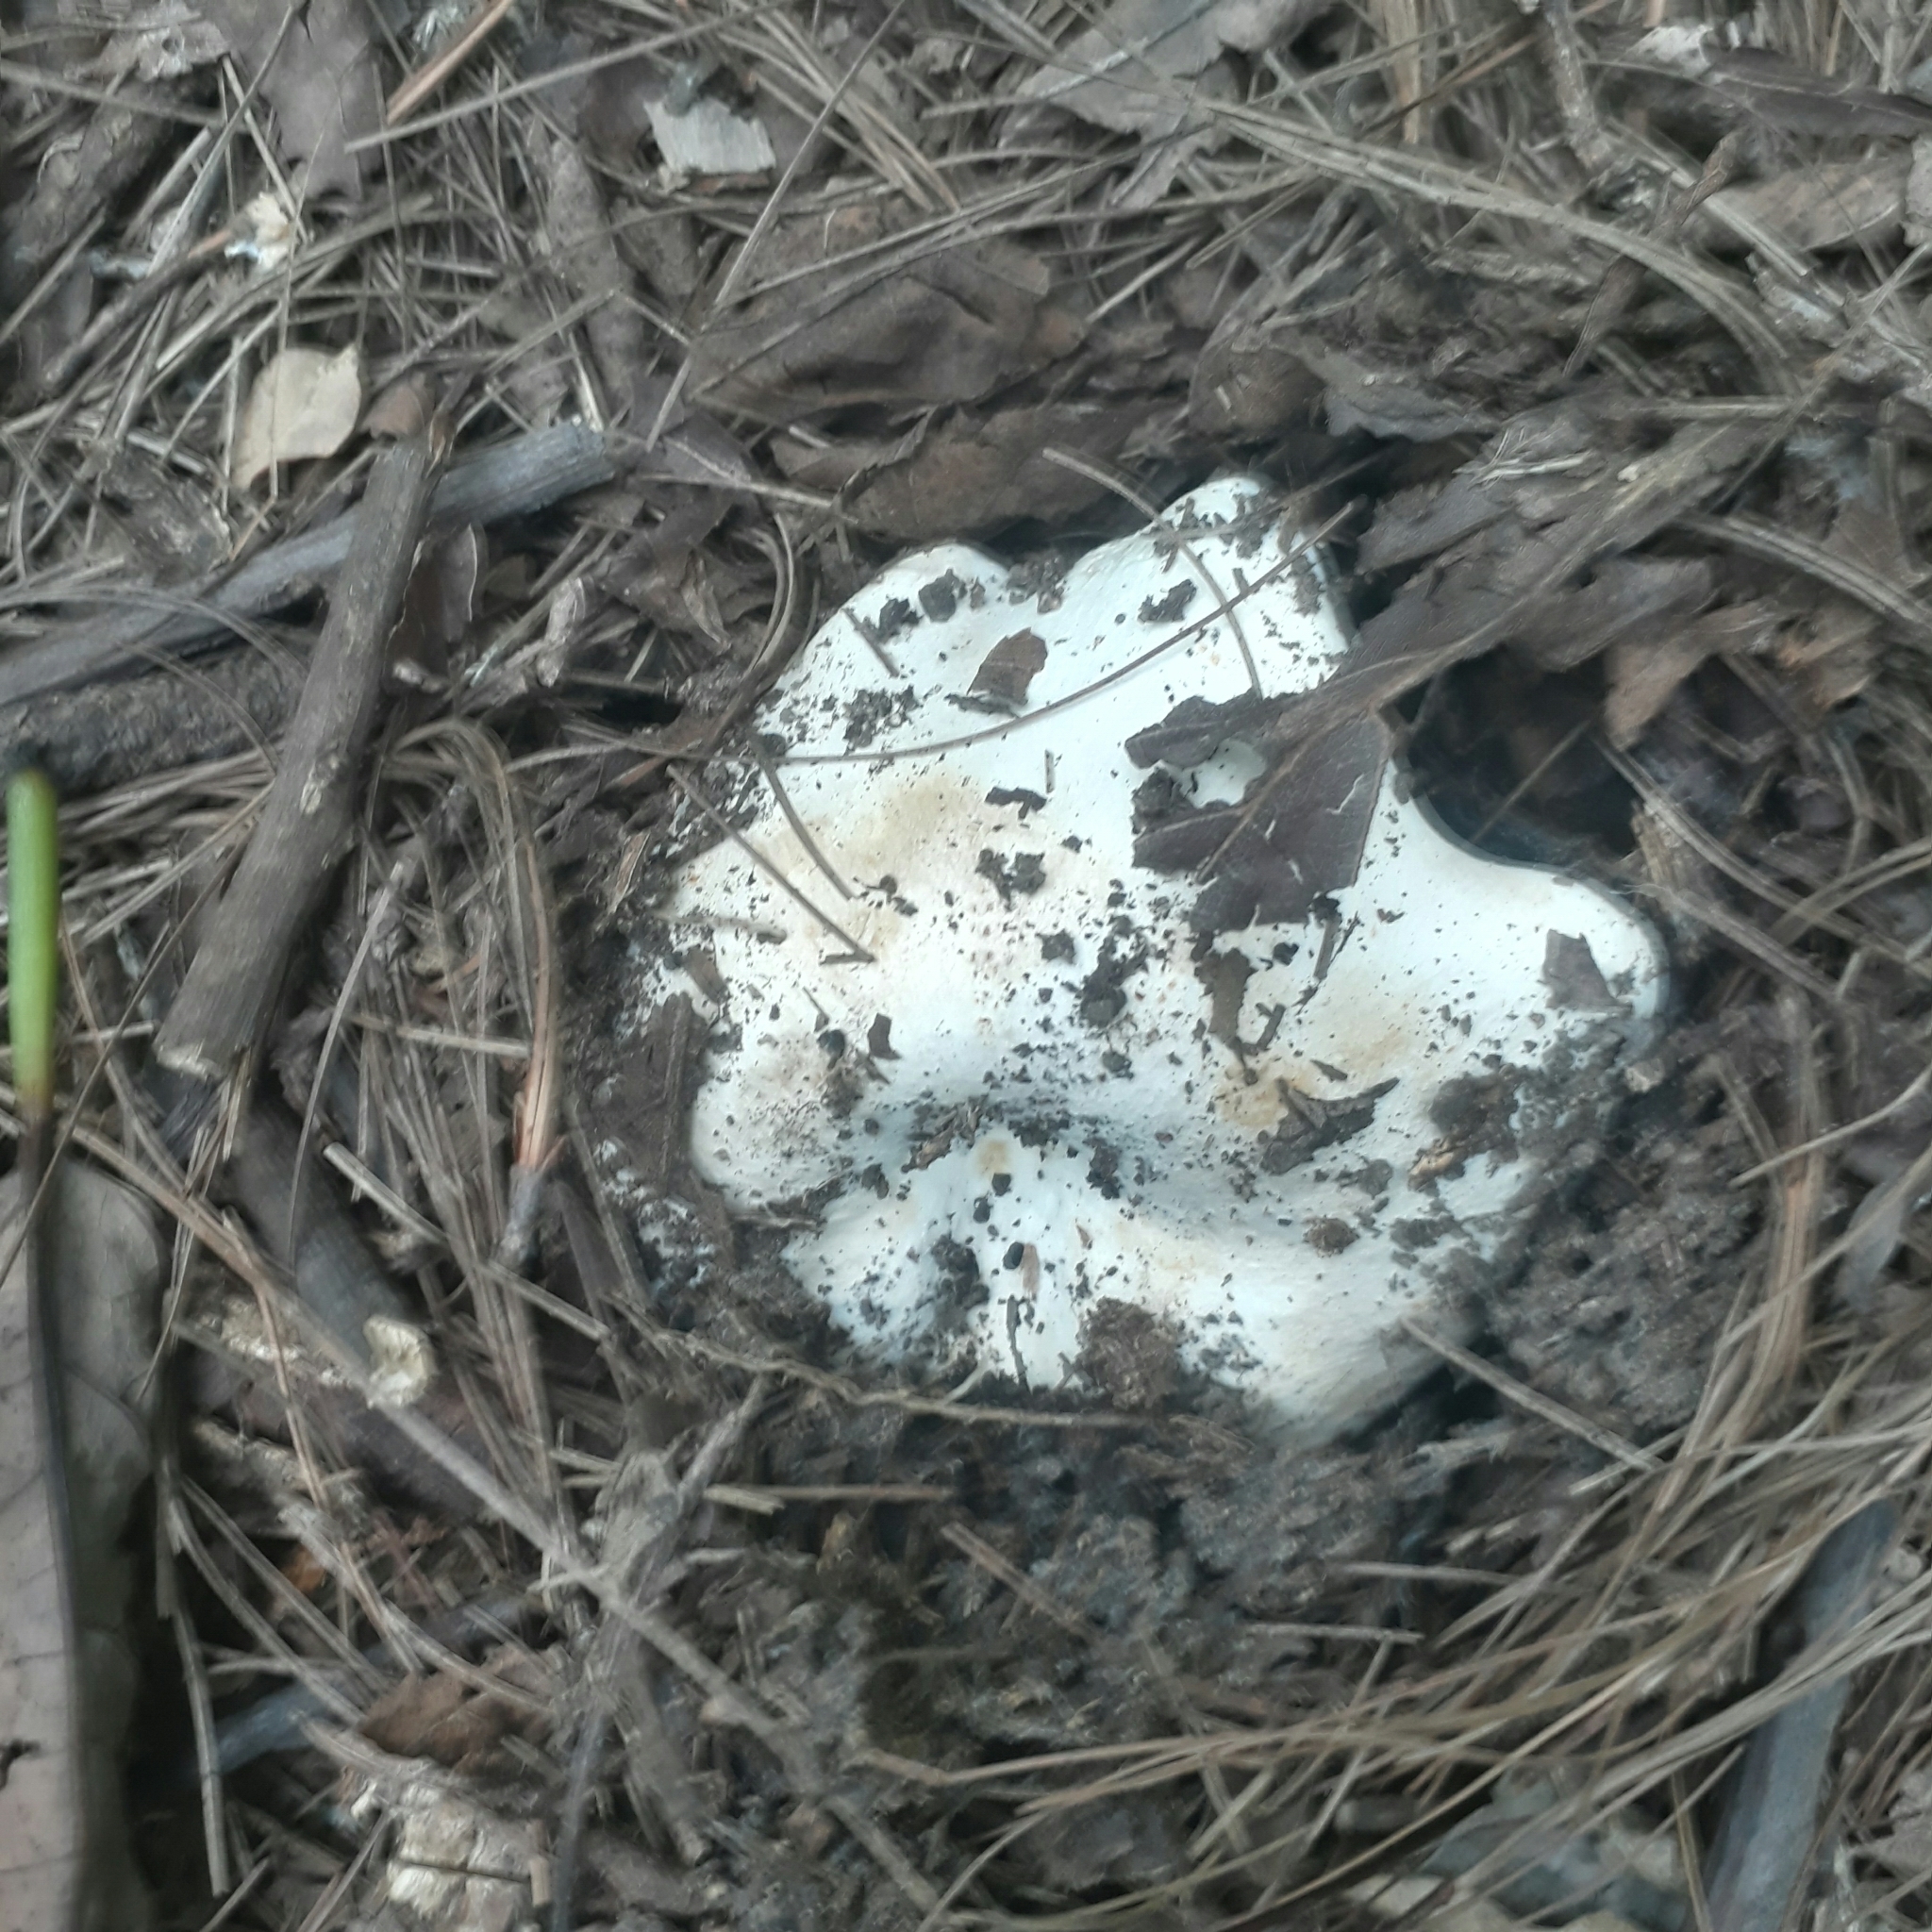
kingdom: Fungi
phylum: Basidiomycota
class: Agaricomycetes
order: Russulales
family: Russulaceae
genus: Russula
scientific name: Russula brevipes
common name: Short-stemmed russula
